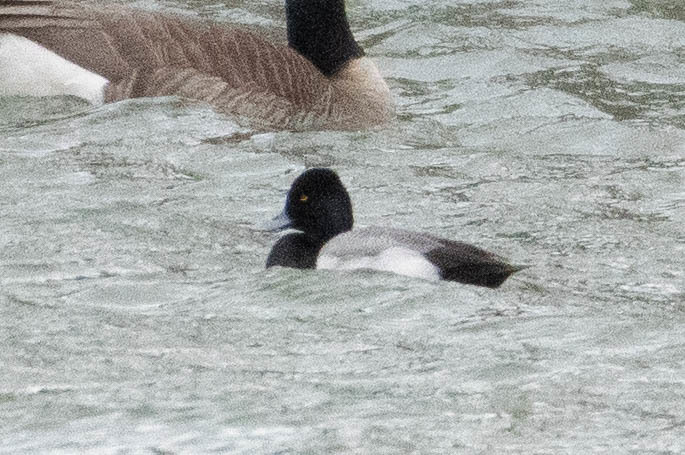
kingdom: Animalia
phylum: Chordata
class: Aves
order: Anseriformes
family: Anatidae
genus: Aythya
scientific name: Aythya affinis
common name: Lesser scaup
